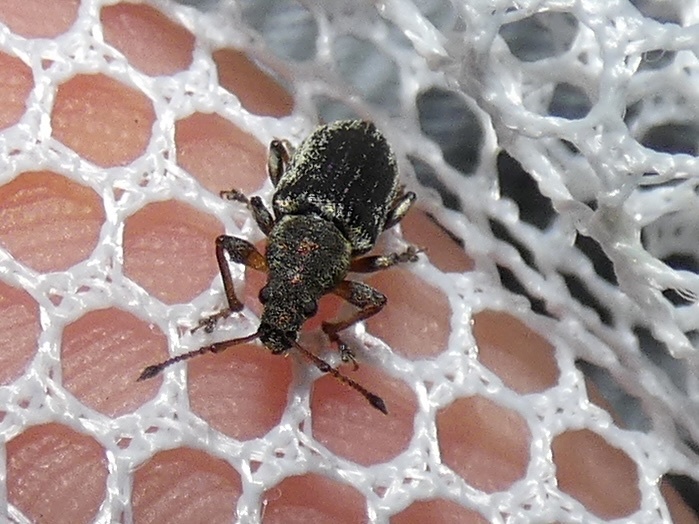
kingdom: Animalia
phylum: Arthropoda
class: Insecta
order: Coleoptera
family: Curculionidae
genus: Phyllobius
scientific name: Phyllobius pyri
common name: Common leaf weevil
